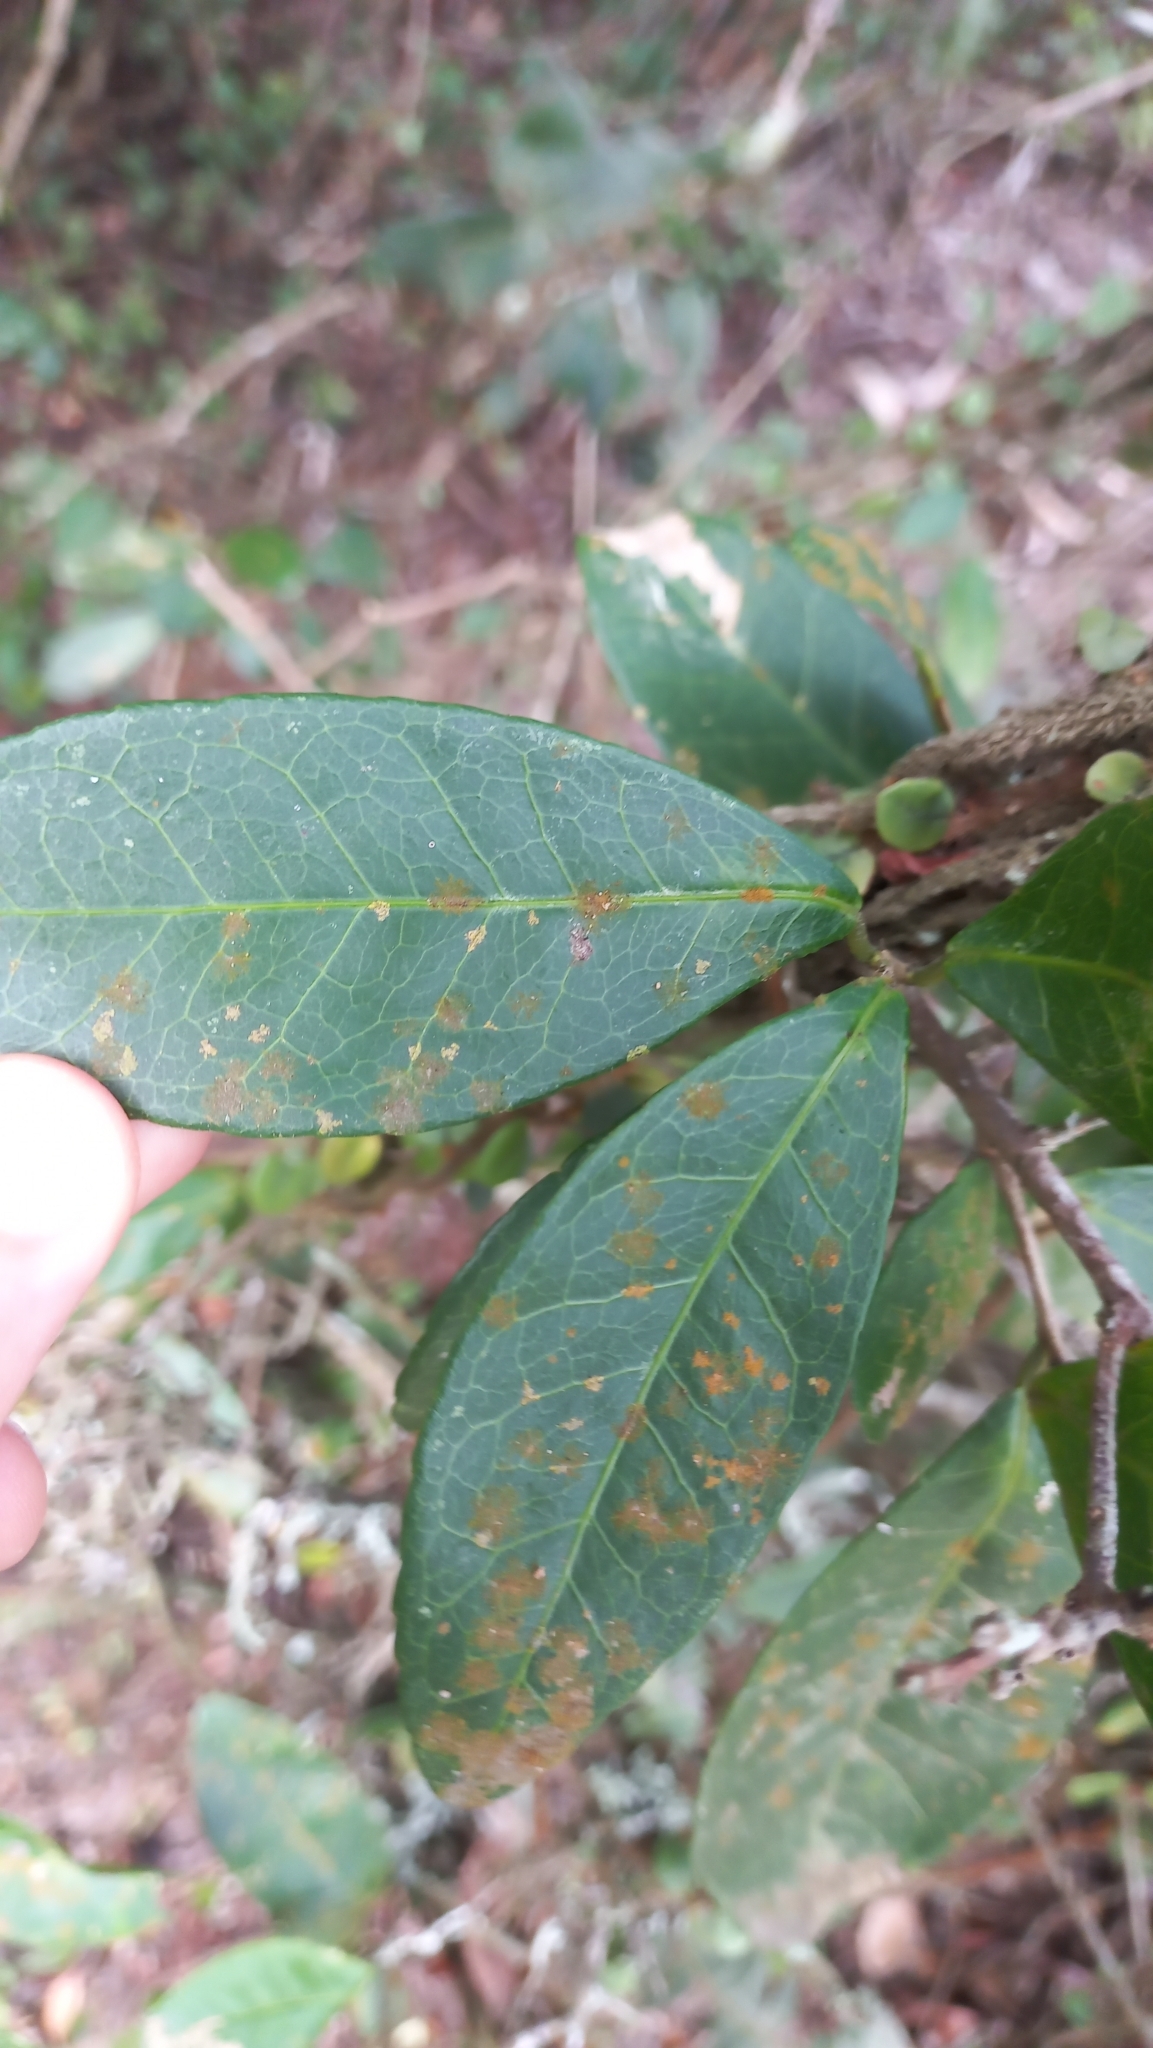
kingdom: Plantae
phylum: Tracheophyta
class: Magnoliopsida
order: Malpighiales
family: Euphorbiaceae
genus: Sebastiania
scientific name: Sebastiania klotzschiana
